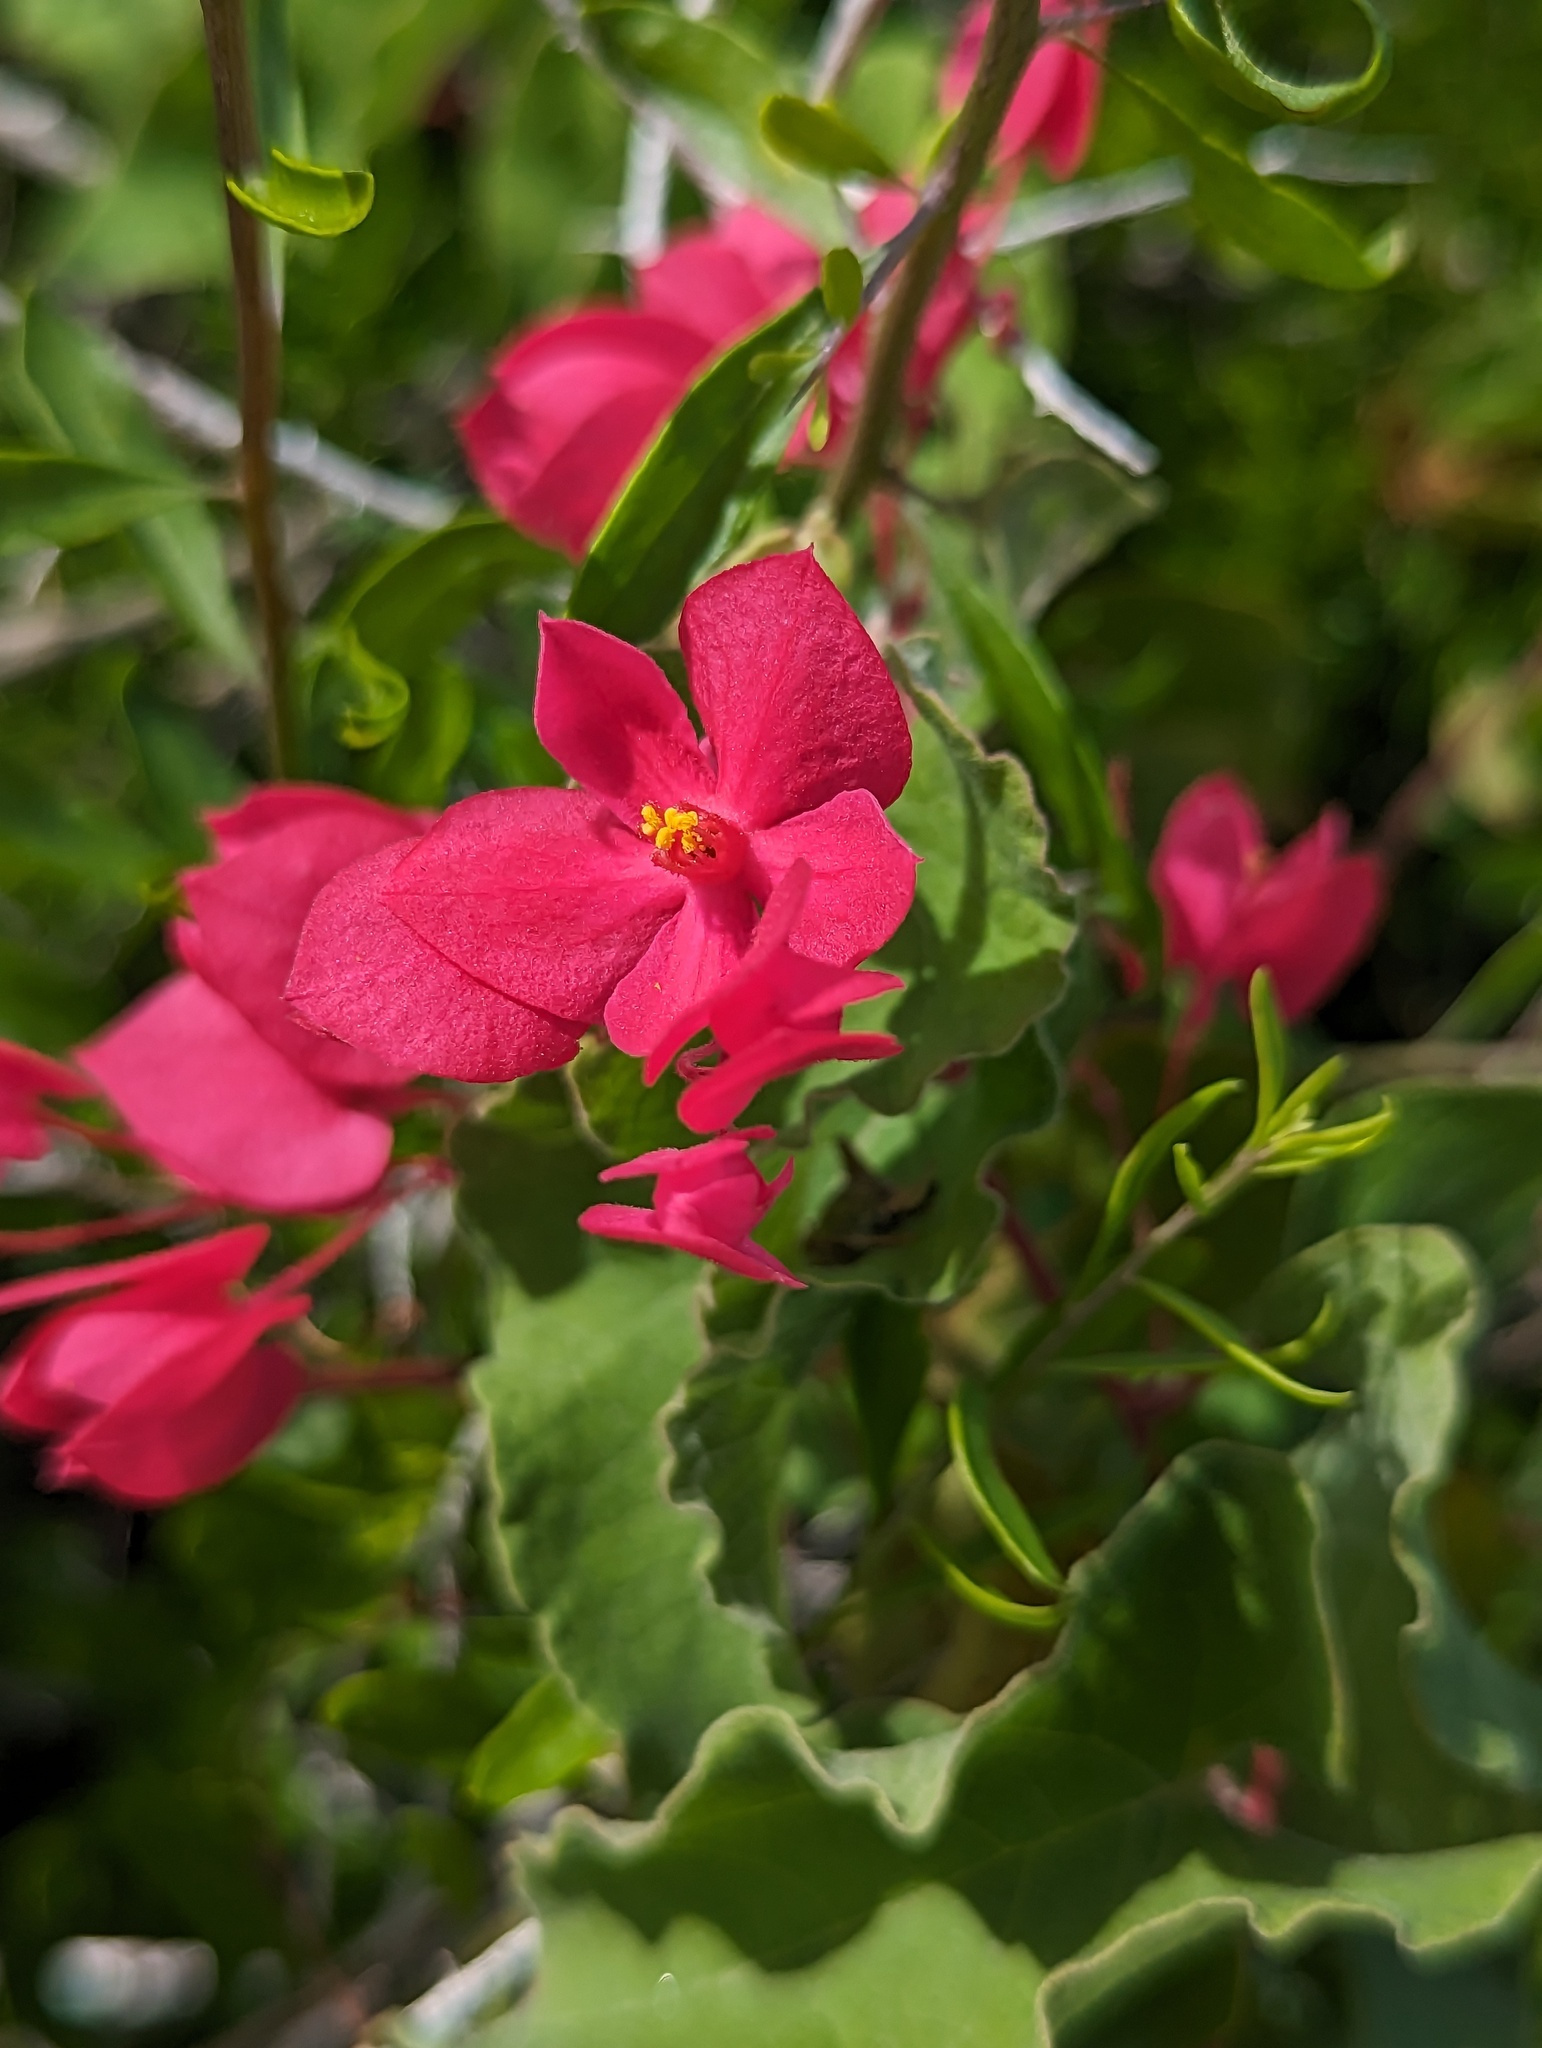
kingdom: Plantae
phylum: Tracheophyta
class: Magnoliopsida
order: Caryophyllales
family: Polygonaceae
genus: Antigonon
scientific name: Antigonon leptopus
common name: Coral vine
